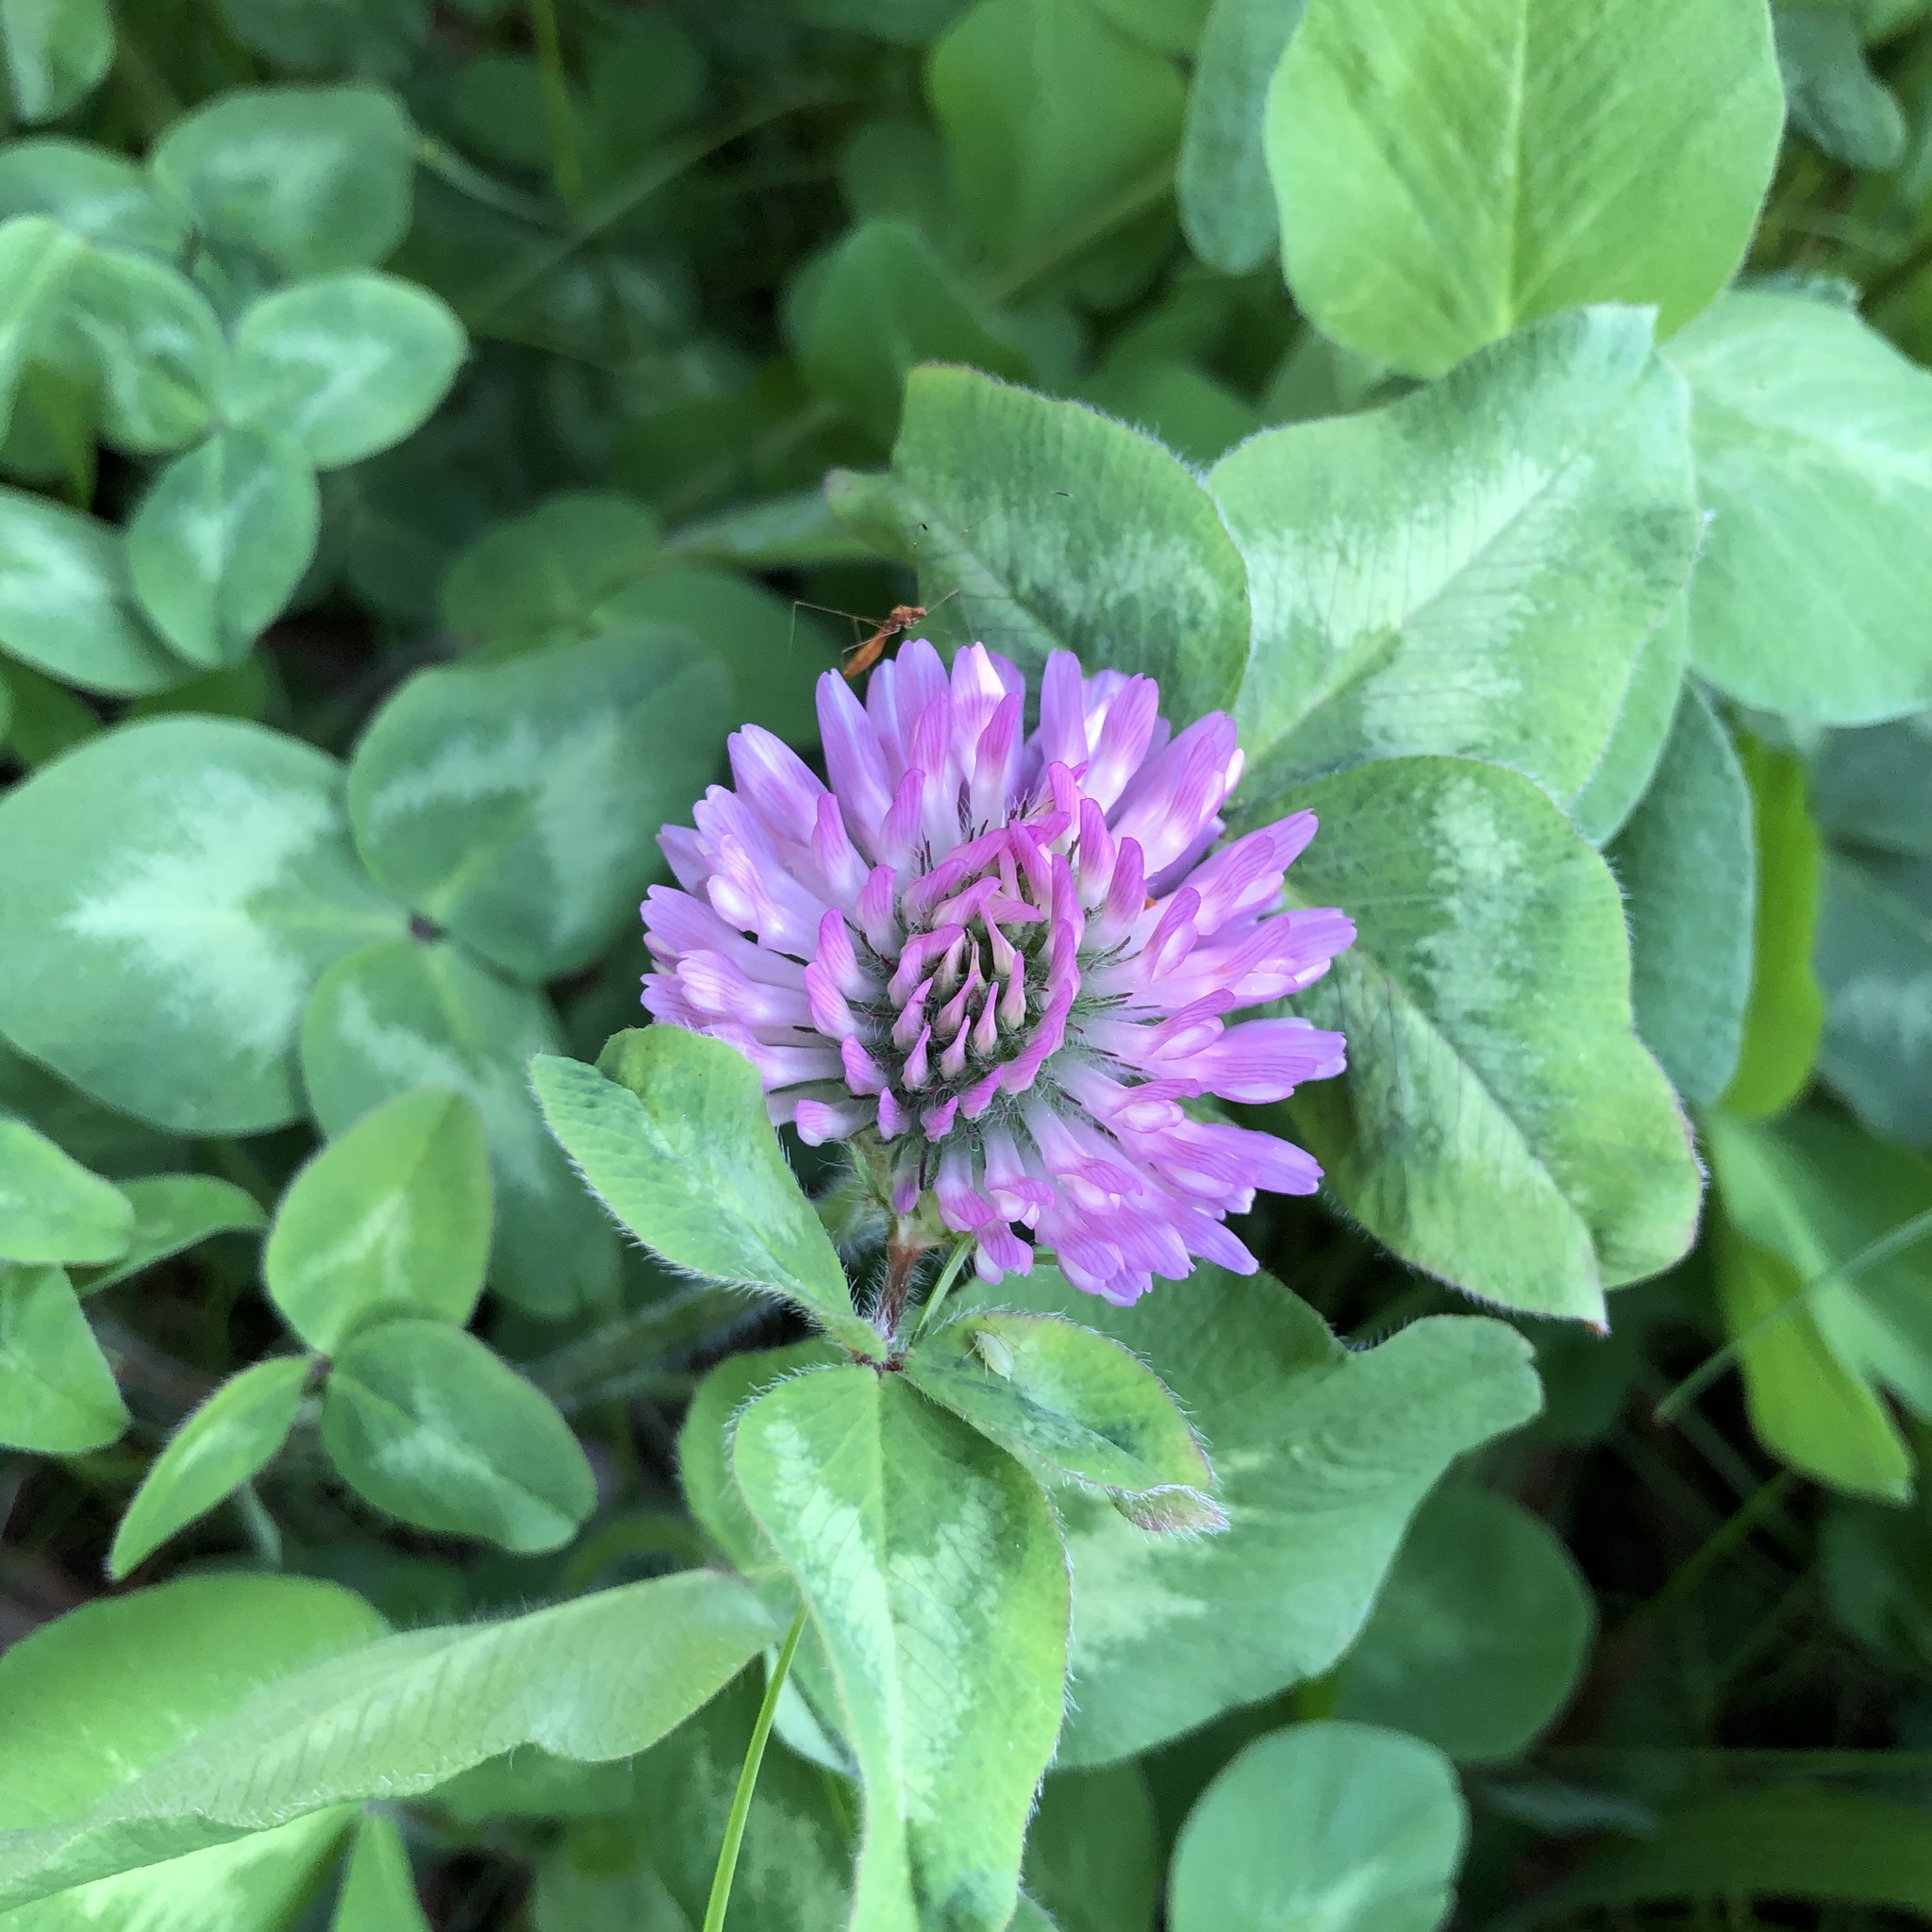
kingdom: Plantae
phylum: Tracheophyta
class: Magnoliopsida
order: Fabales
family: Fabaceae
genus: Trifolium
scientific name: Trifolium pratense
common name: Red clover
